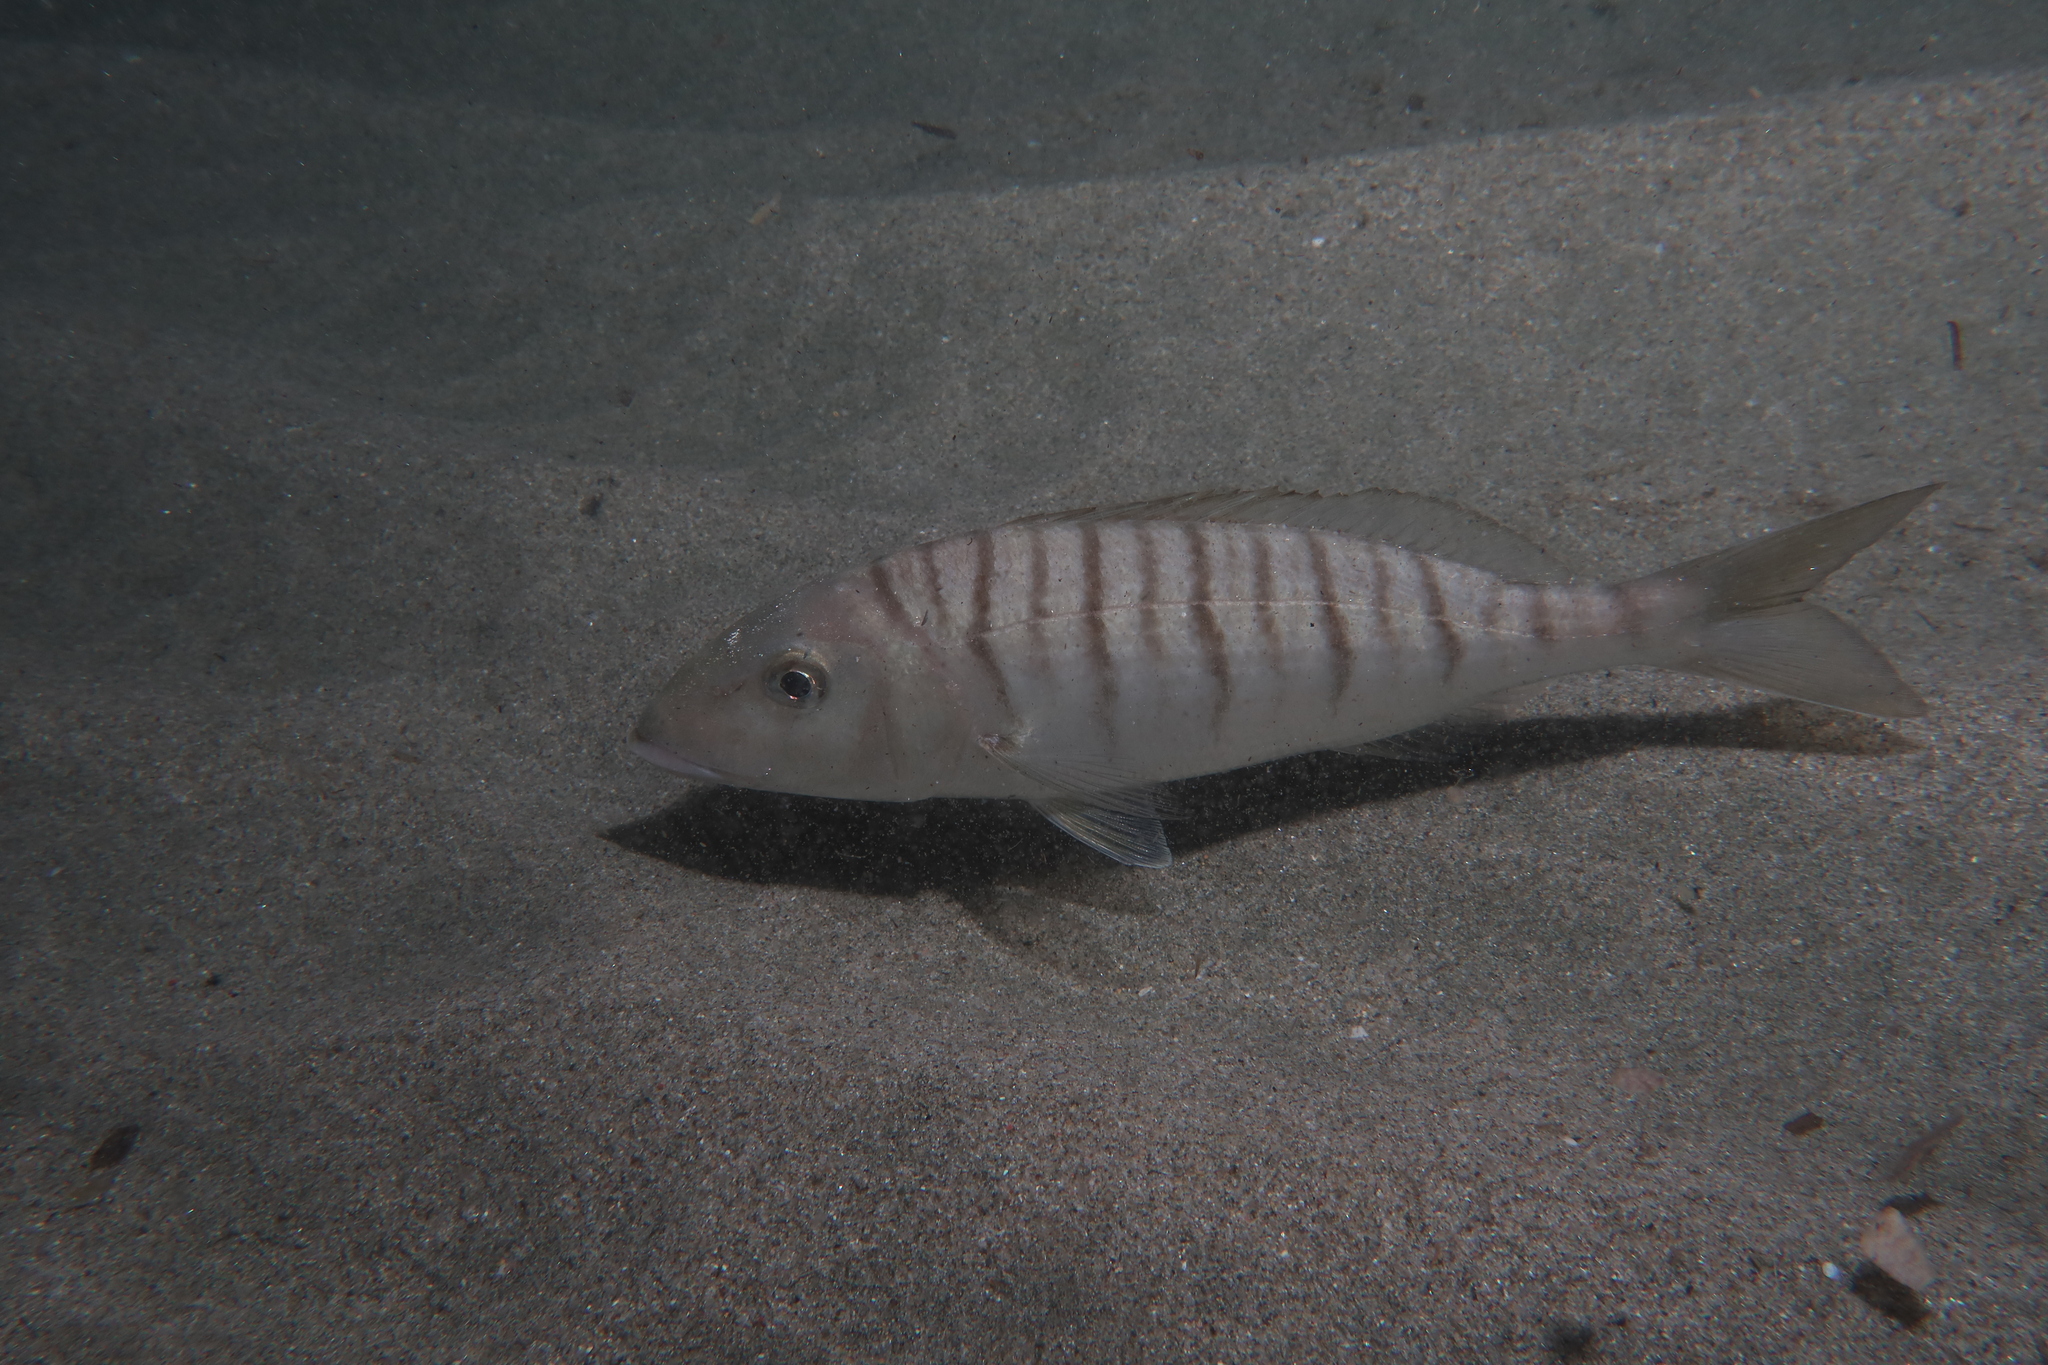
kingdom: Animalia
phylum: Chordata
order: Perciformes
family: Sparidae
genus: Lithognathus
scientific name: Lithognathus mormyrus
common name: Sand steenbras
